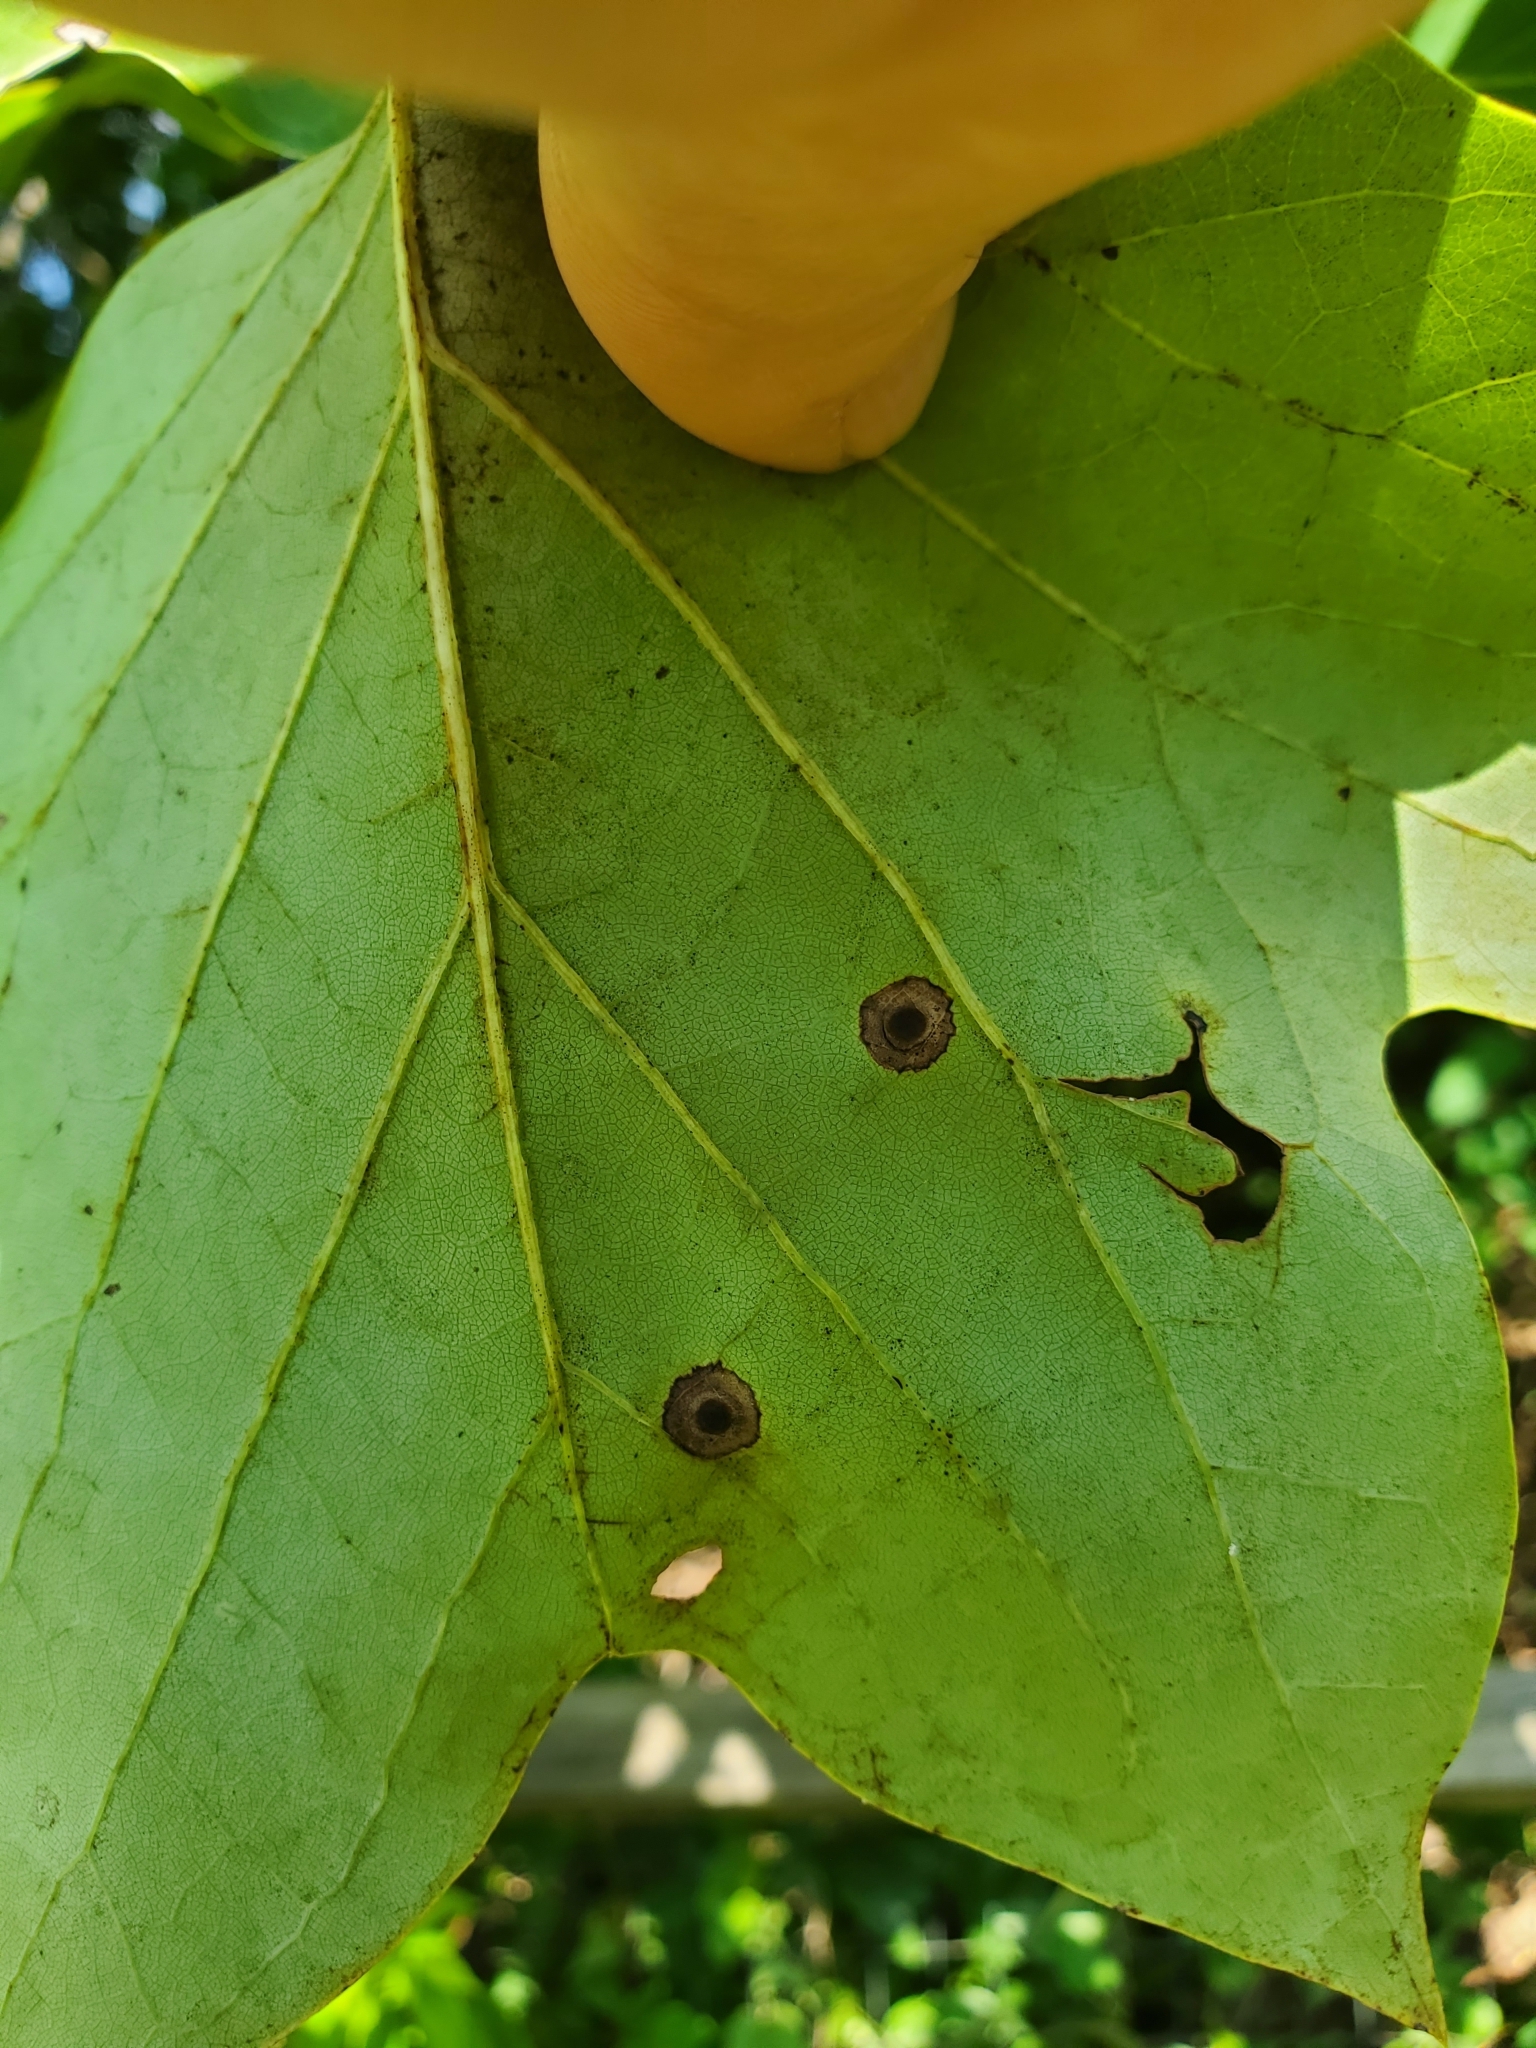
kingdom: Animalia
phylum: Arthropoda
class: Insecta
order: Diptera
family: Cecidomyiidae
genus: Resseliella
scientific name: Resseliella liriodendri
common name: Tulip tree leaf spot gall midge
